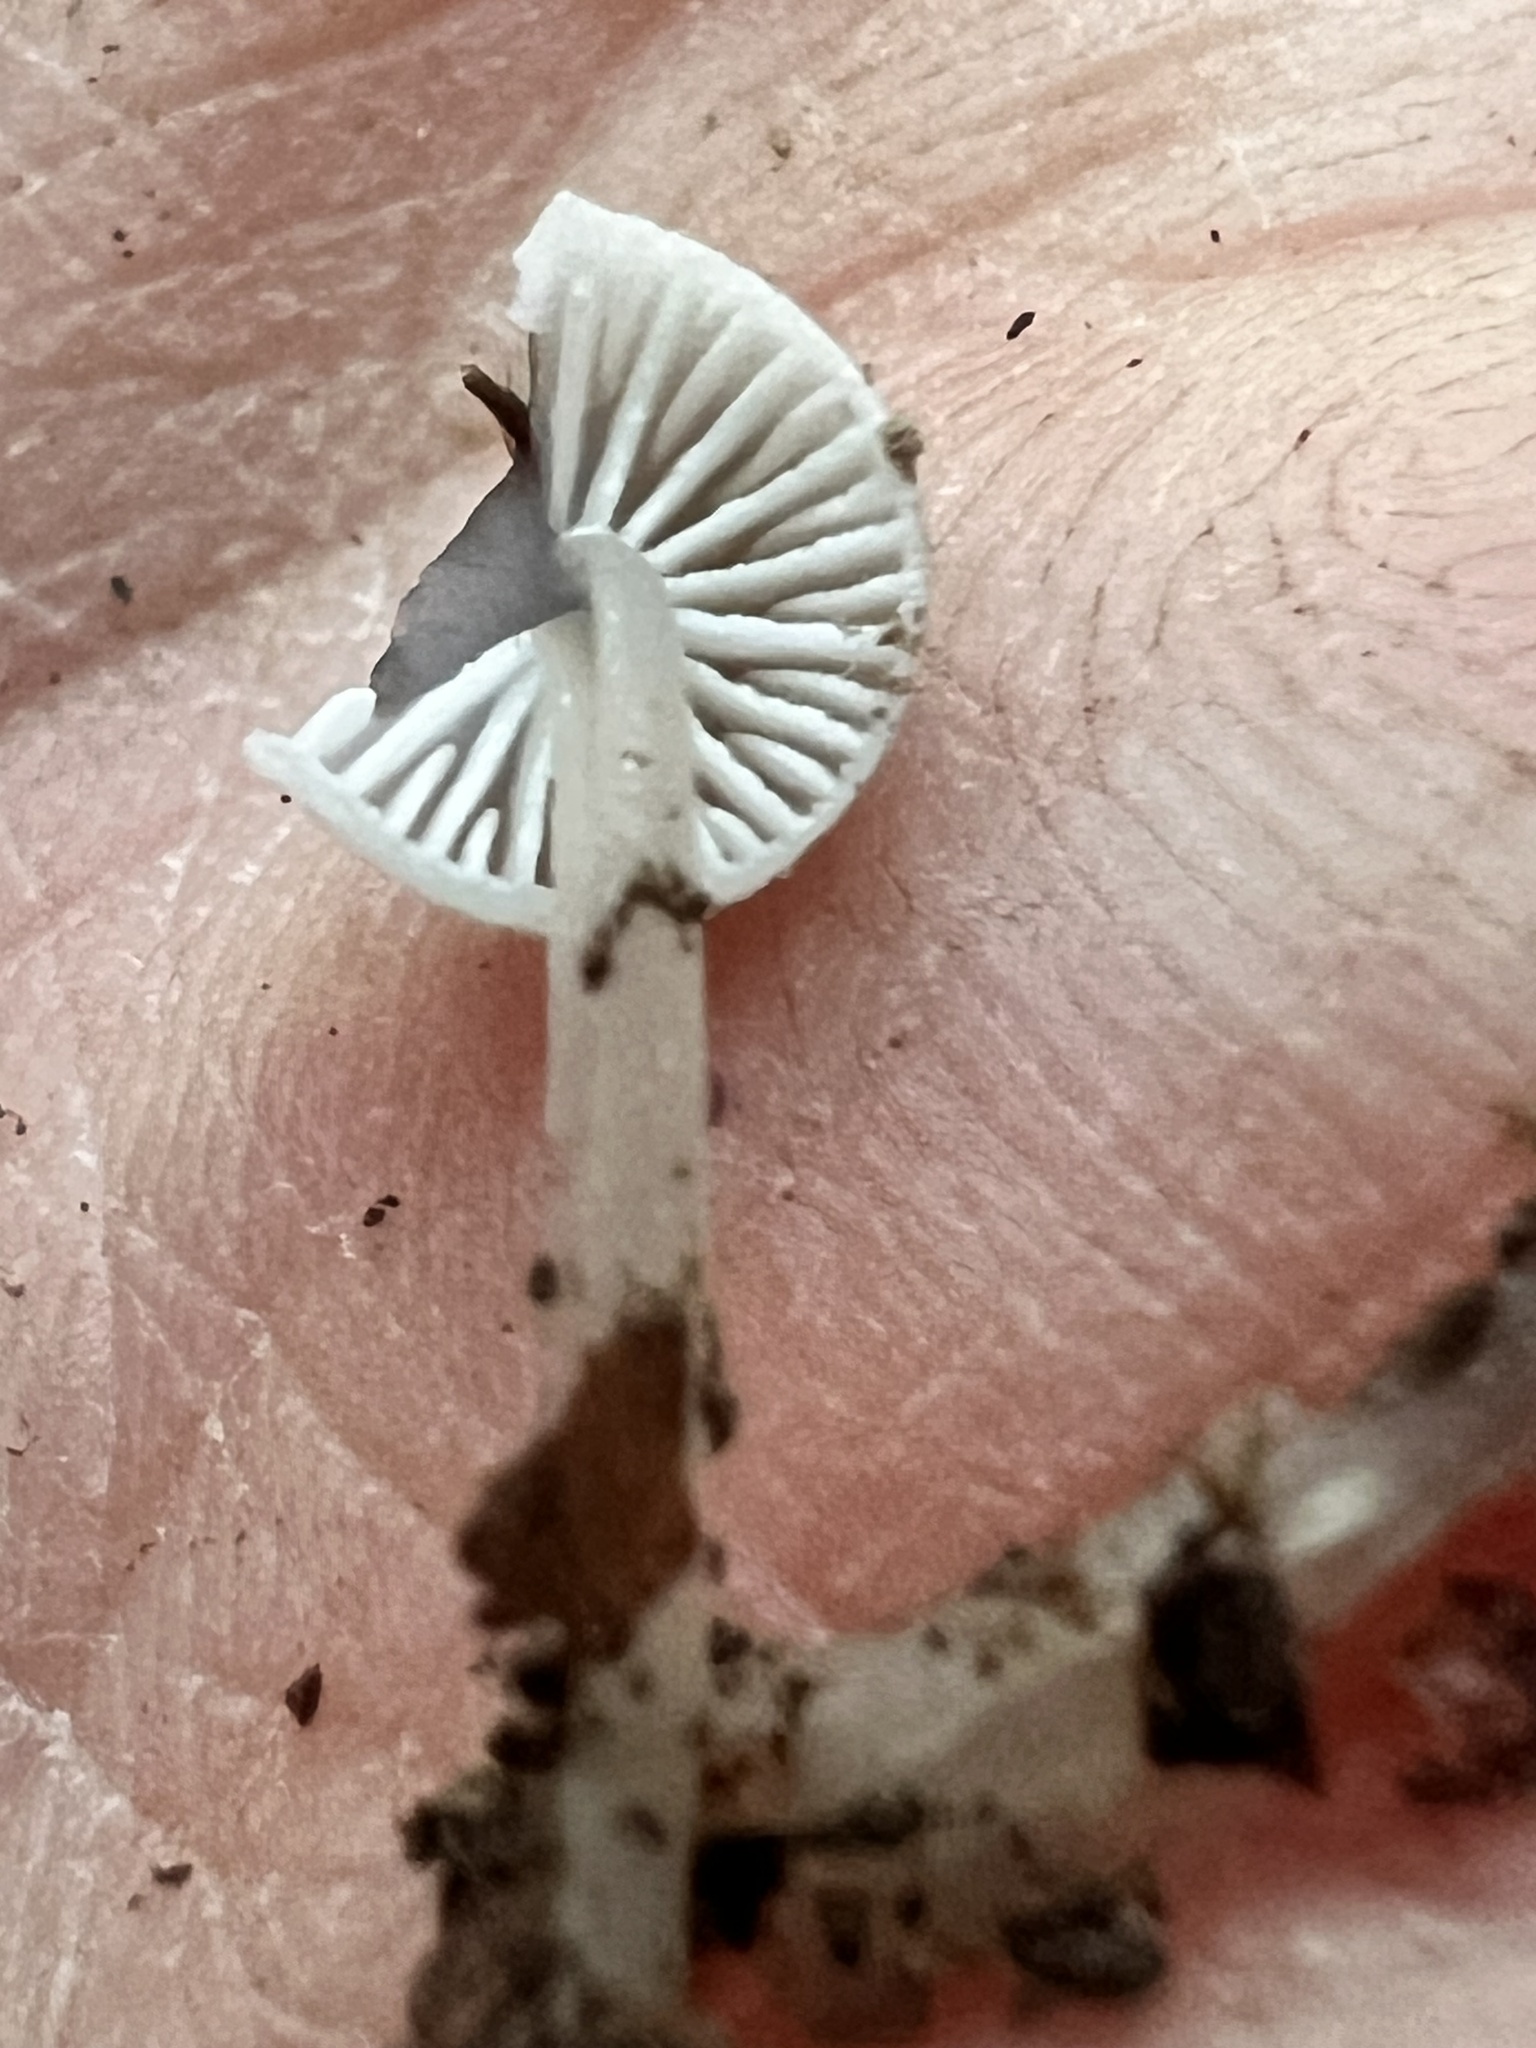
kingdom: Fungi
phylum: Basidiomycota
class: Agaricomycetes
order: Agaricales
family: Mycenaceae
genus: Roridomyces
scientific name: Roridomyces austrororidus
